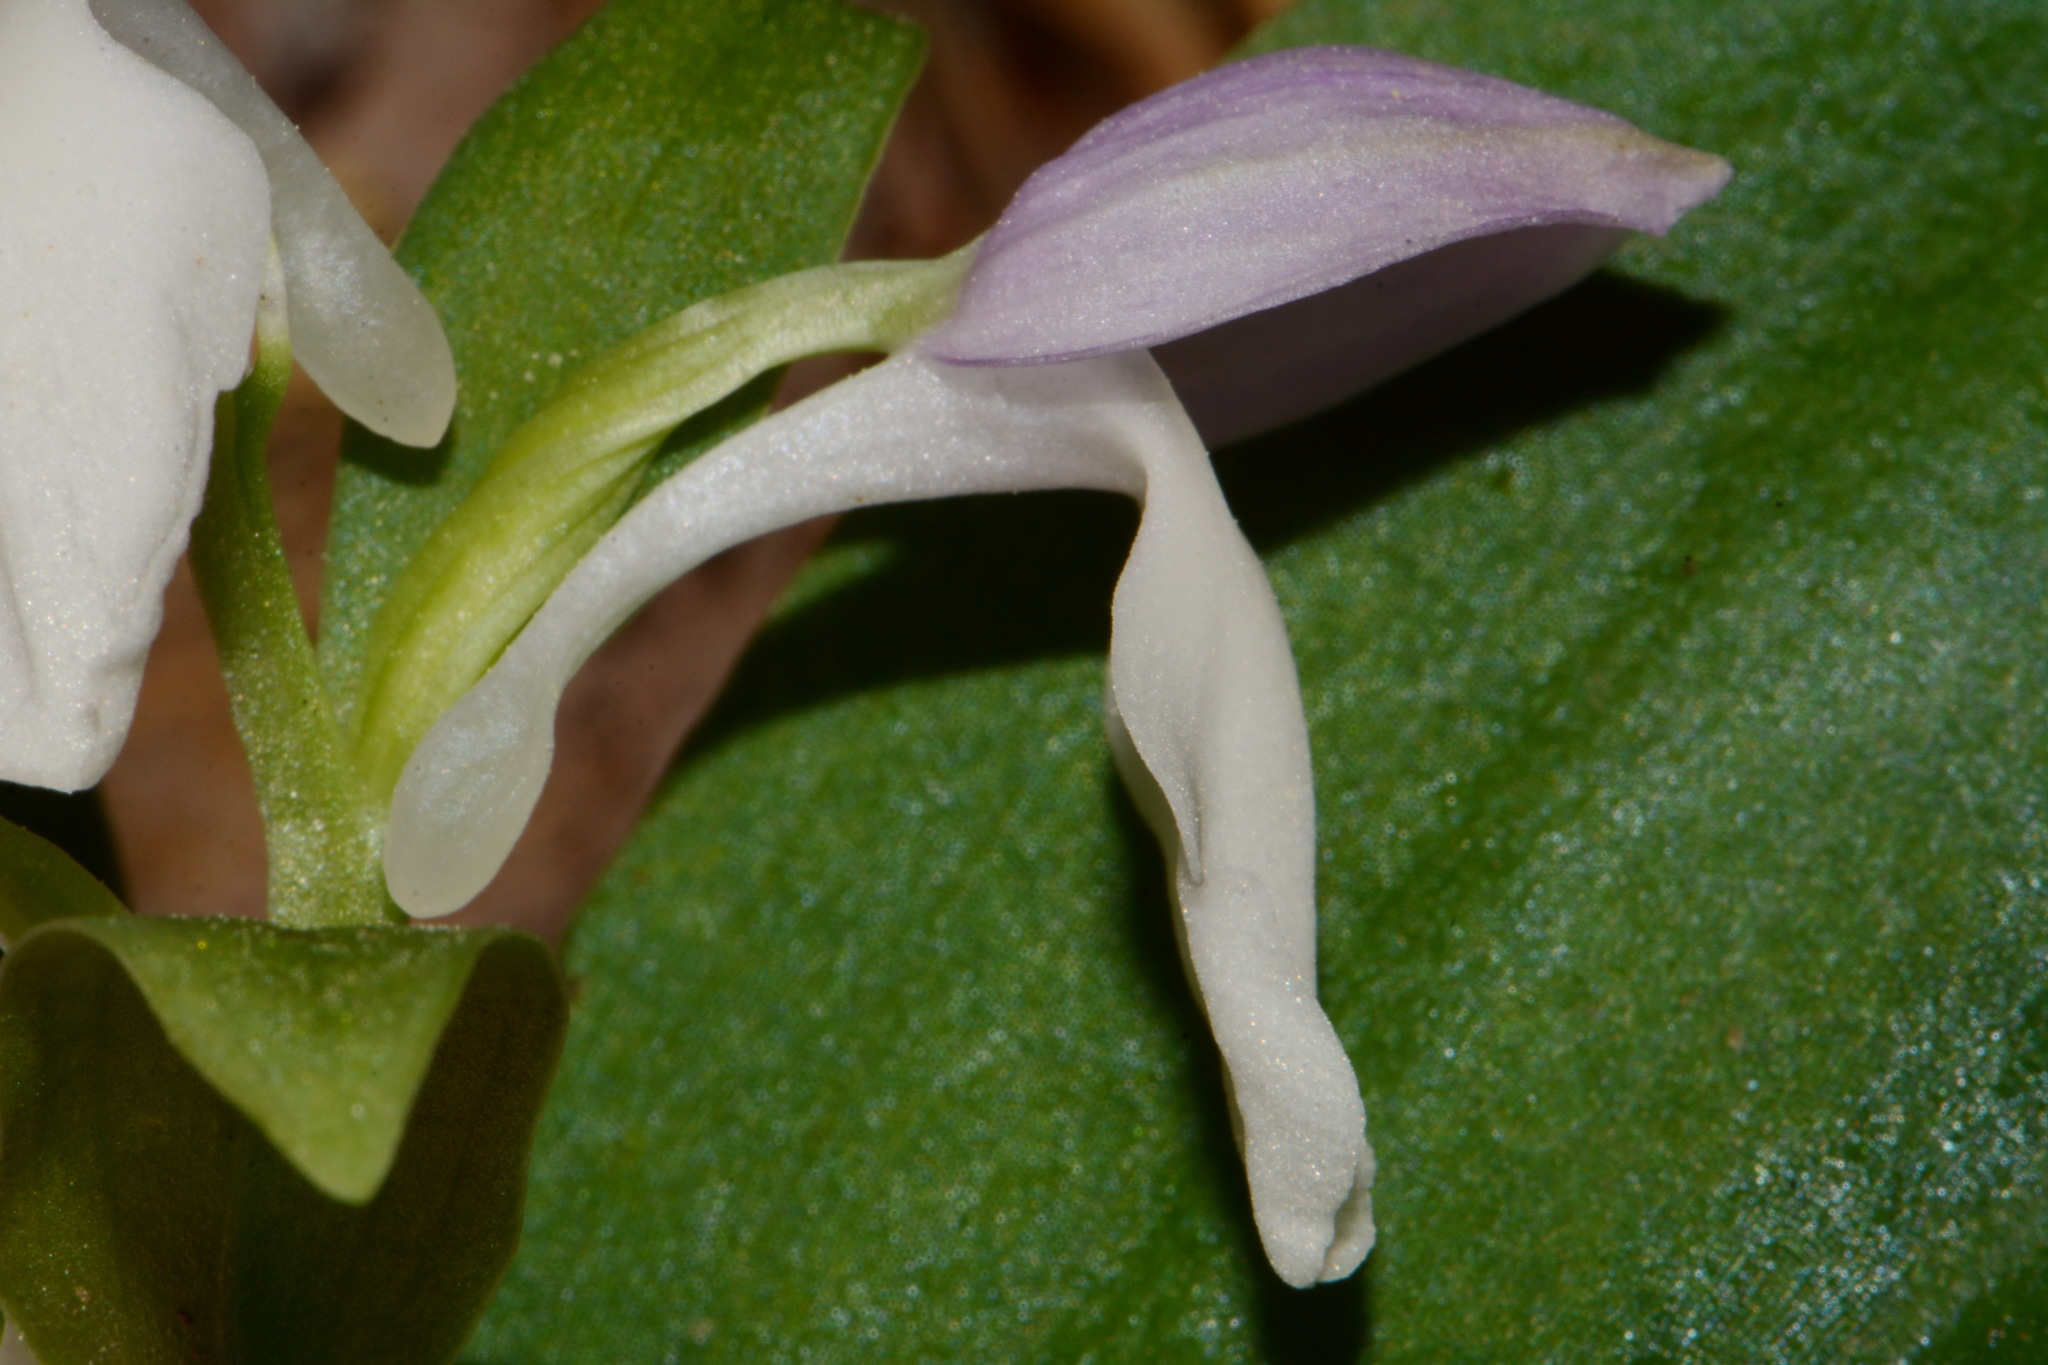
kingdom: Plantae
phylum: Tracheophyta
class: Liliopsida
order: Asparagales
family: Orchidaceae
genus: Galearis
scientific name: Galearis spectabilis
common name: Purple-hooded orchis
